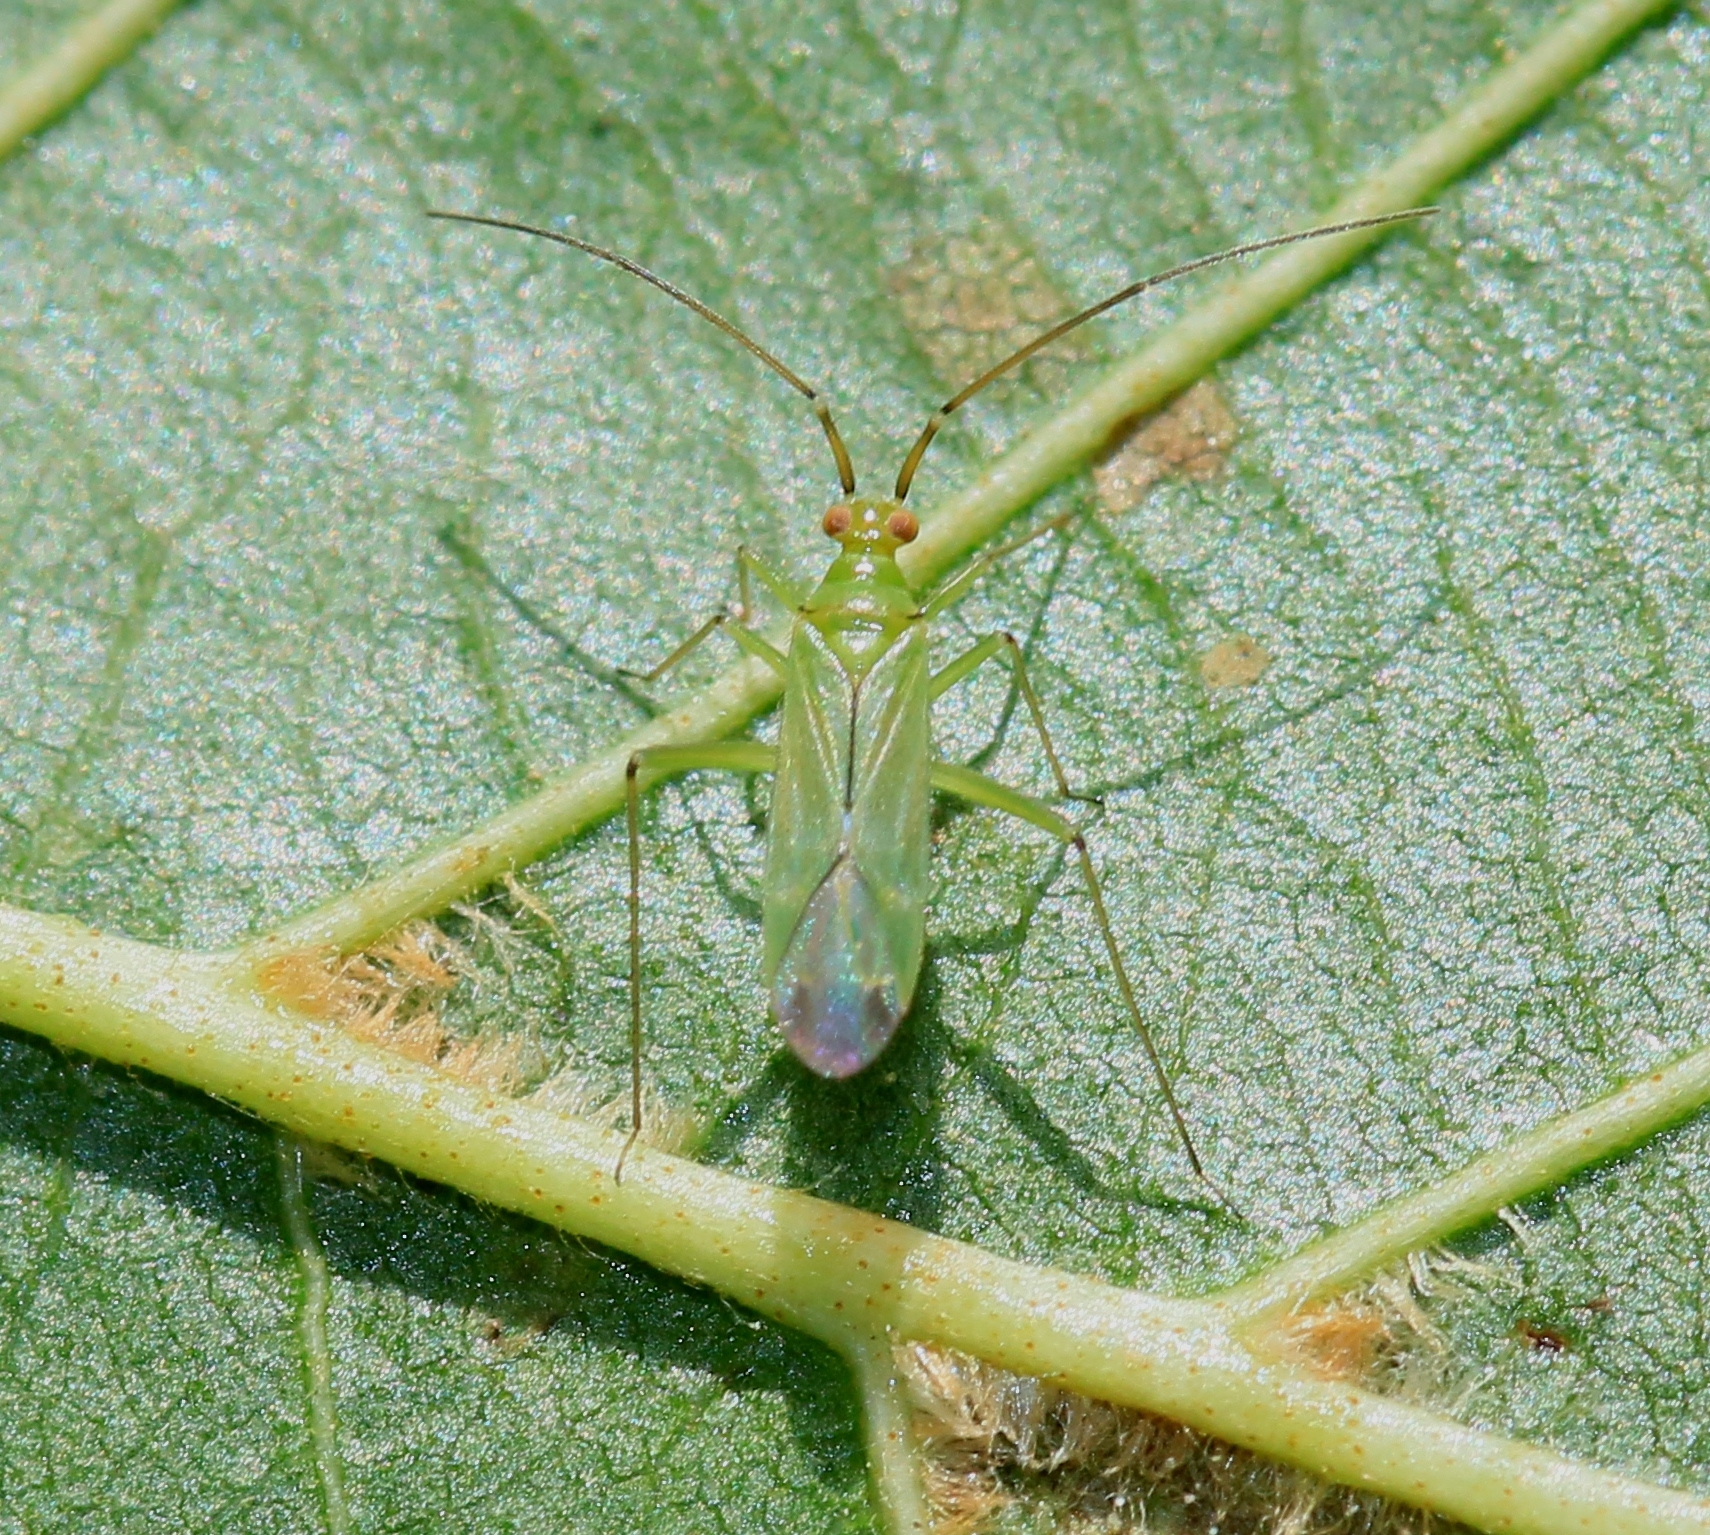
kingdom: Animalia
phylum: Arthropoda
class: Insecta
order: Hemiptera
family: Miridae
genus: Blepharidopterus
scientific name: Blepharidopterus angulatus
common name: Plant bug
